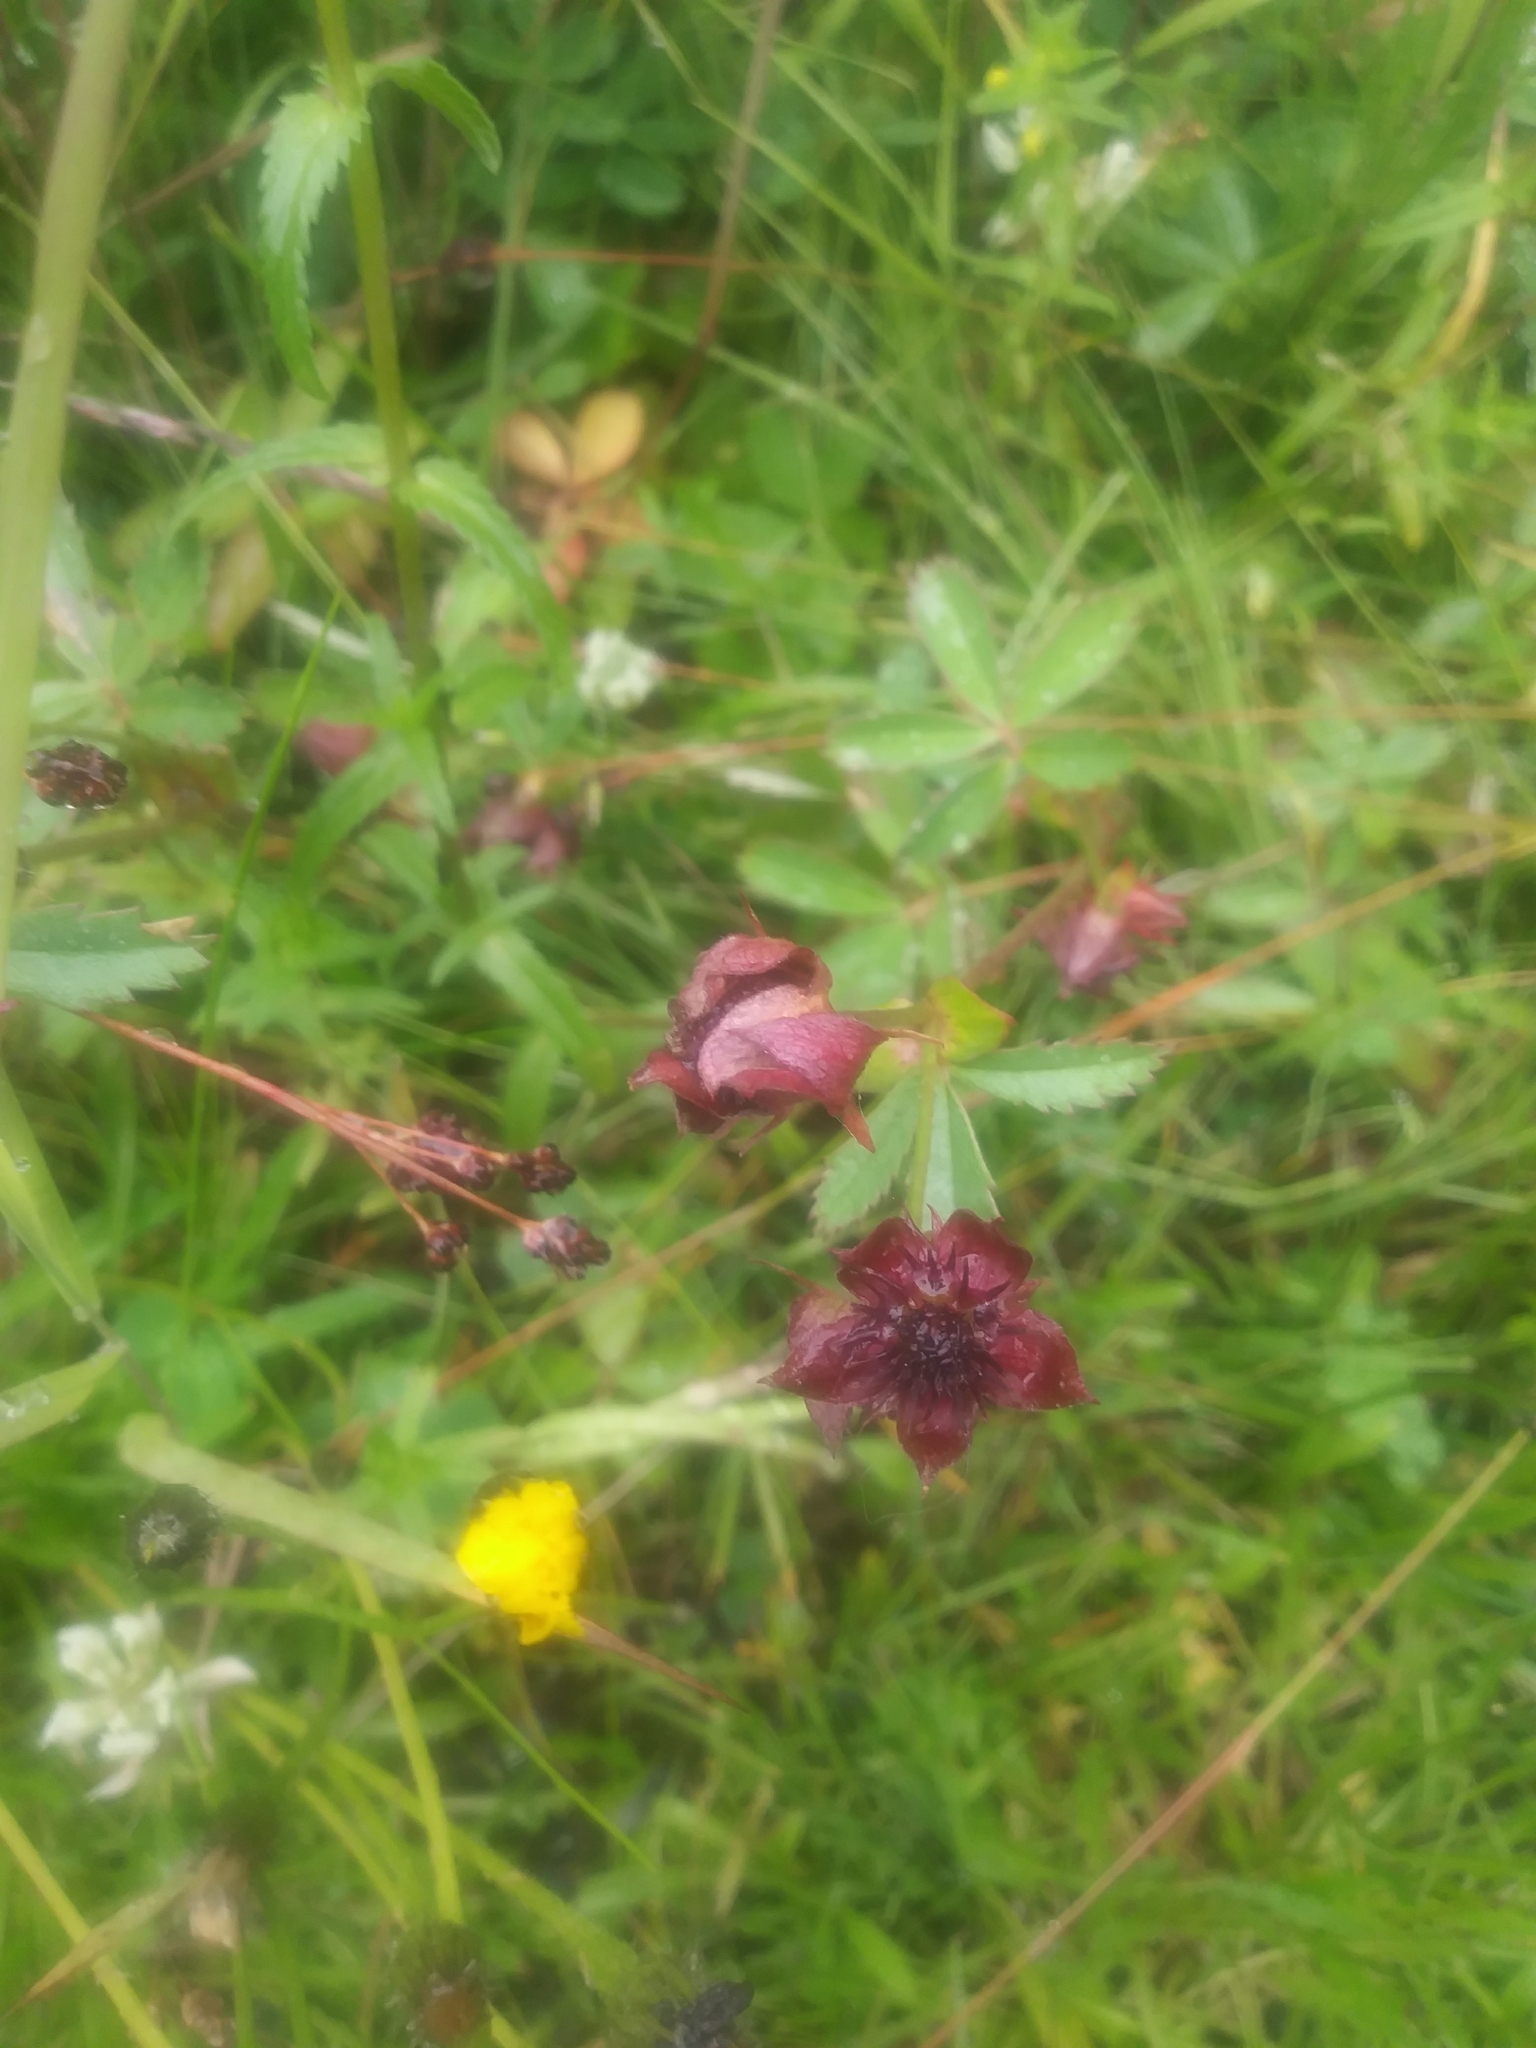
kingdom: Plantae
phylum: Tracheophyta
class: Magnoliopsida
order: Rosales
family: Rosaceae
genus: Comarum
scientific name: Comarum palustre
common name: Marsh cinquefoil
